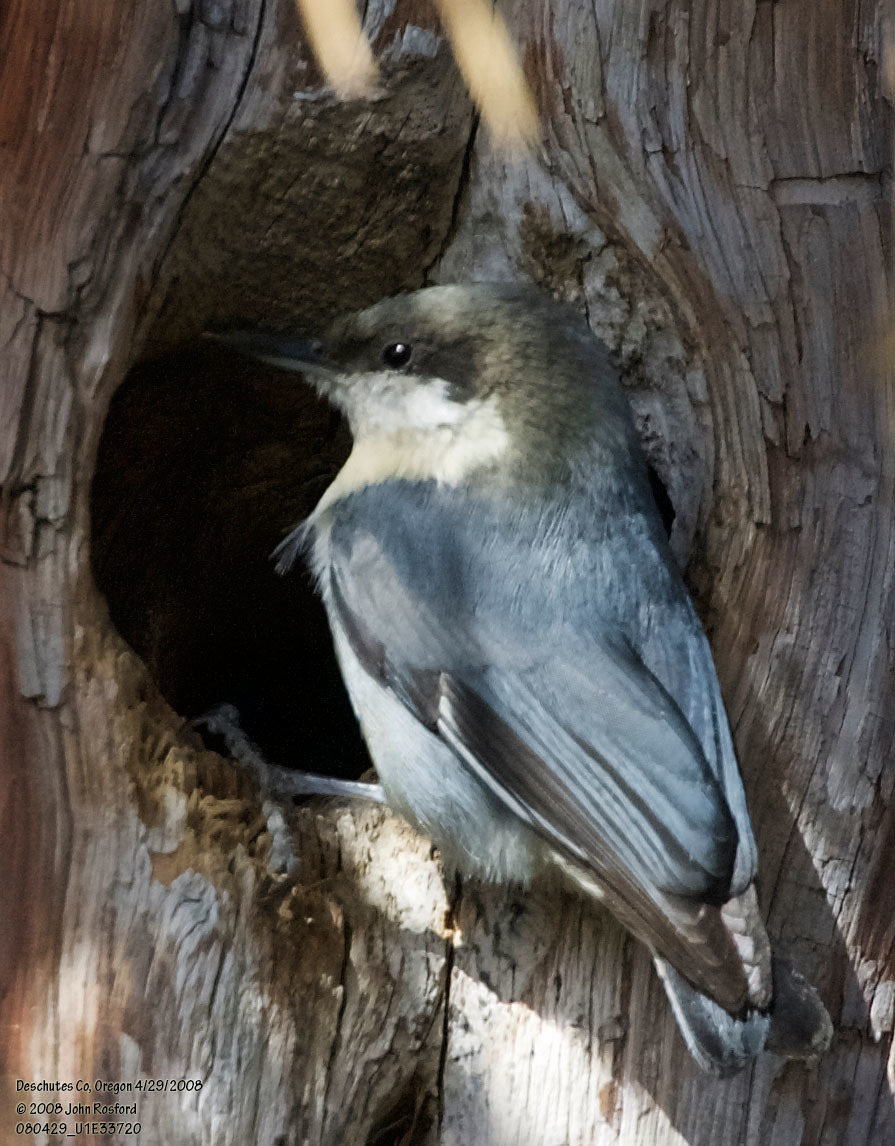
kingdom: Animalia
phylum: Chordata
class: Aves
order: Passeriformes
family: Sittidae
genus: Sitta
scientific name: Sitta pygmaea
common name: Pygmy nuthatch
